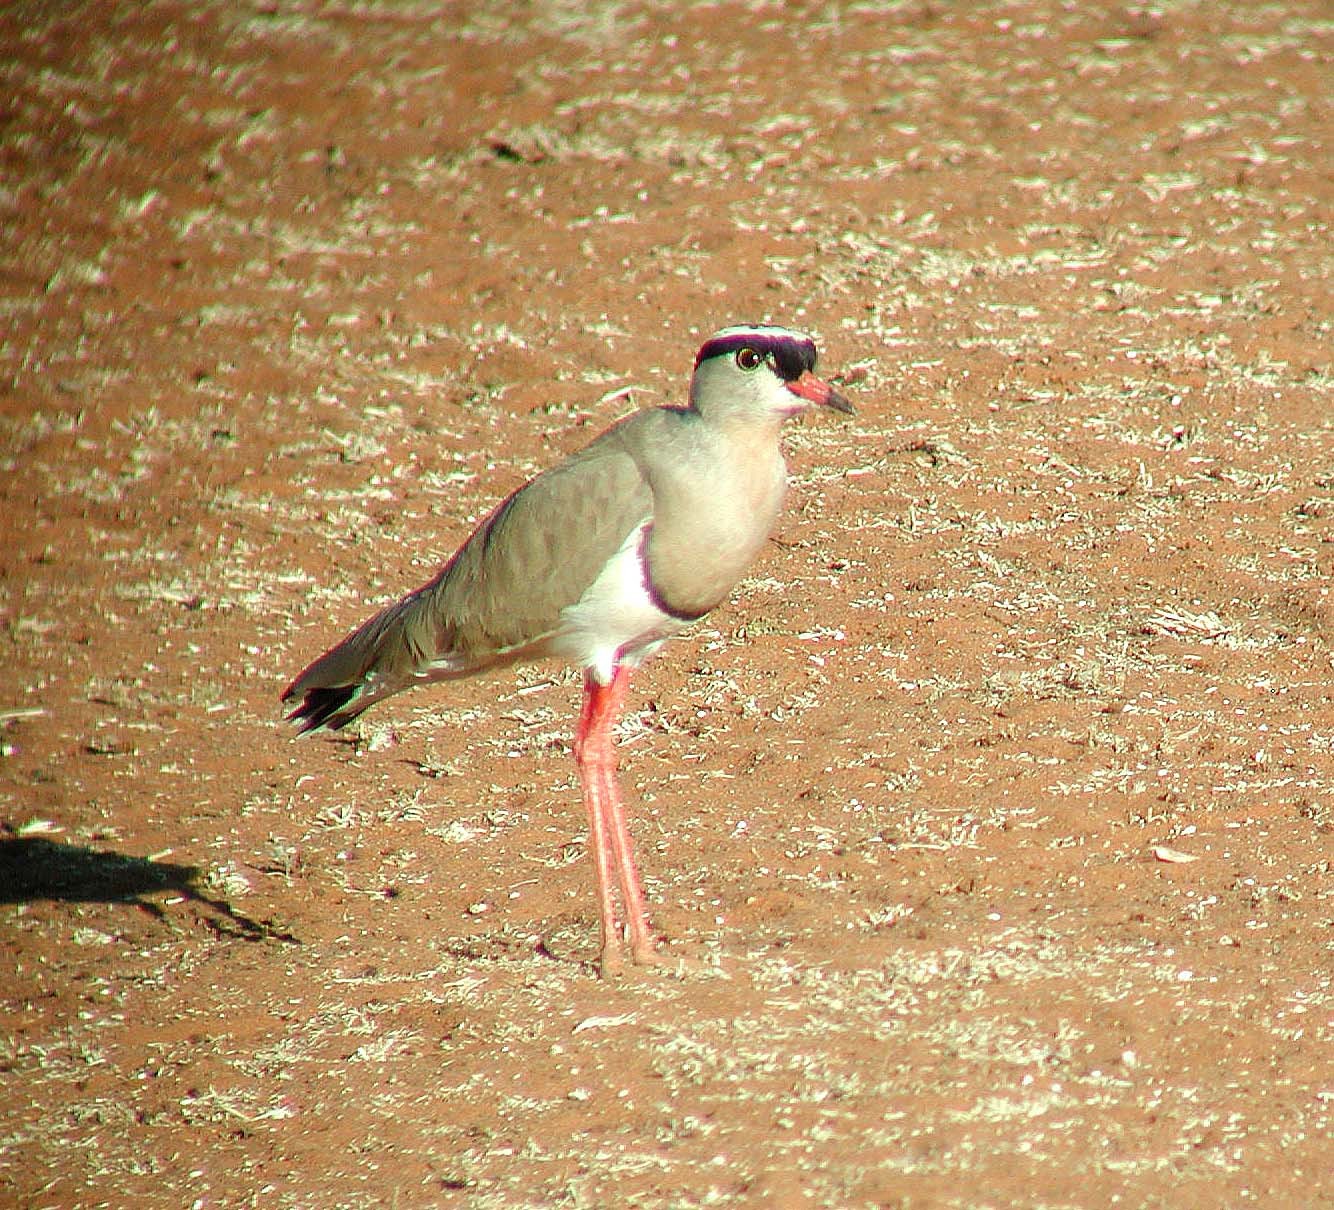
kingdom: Animalia
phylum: Chordata
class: Aves
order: Charadriiformes
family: Charadriidae
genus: Vanellus
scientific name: Vanellus coronatus
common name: Crowned lapwing
